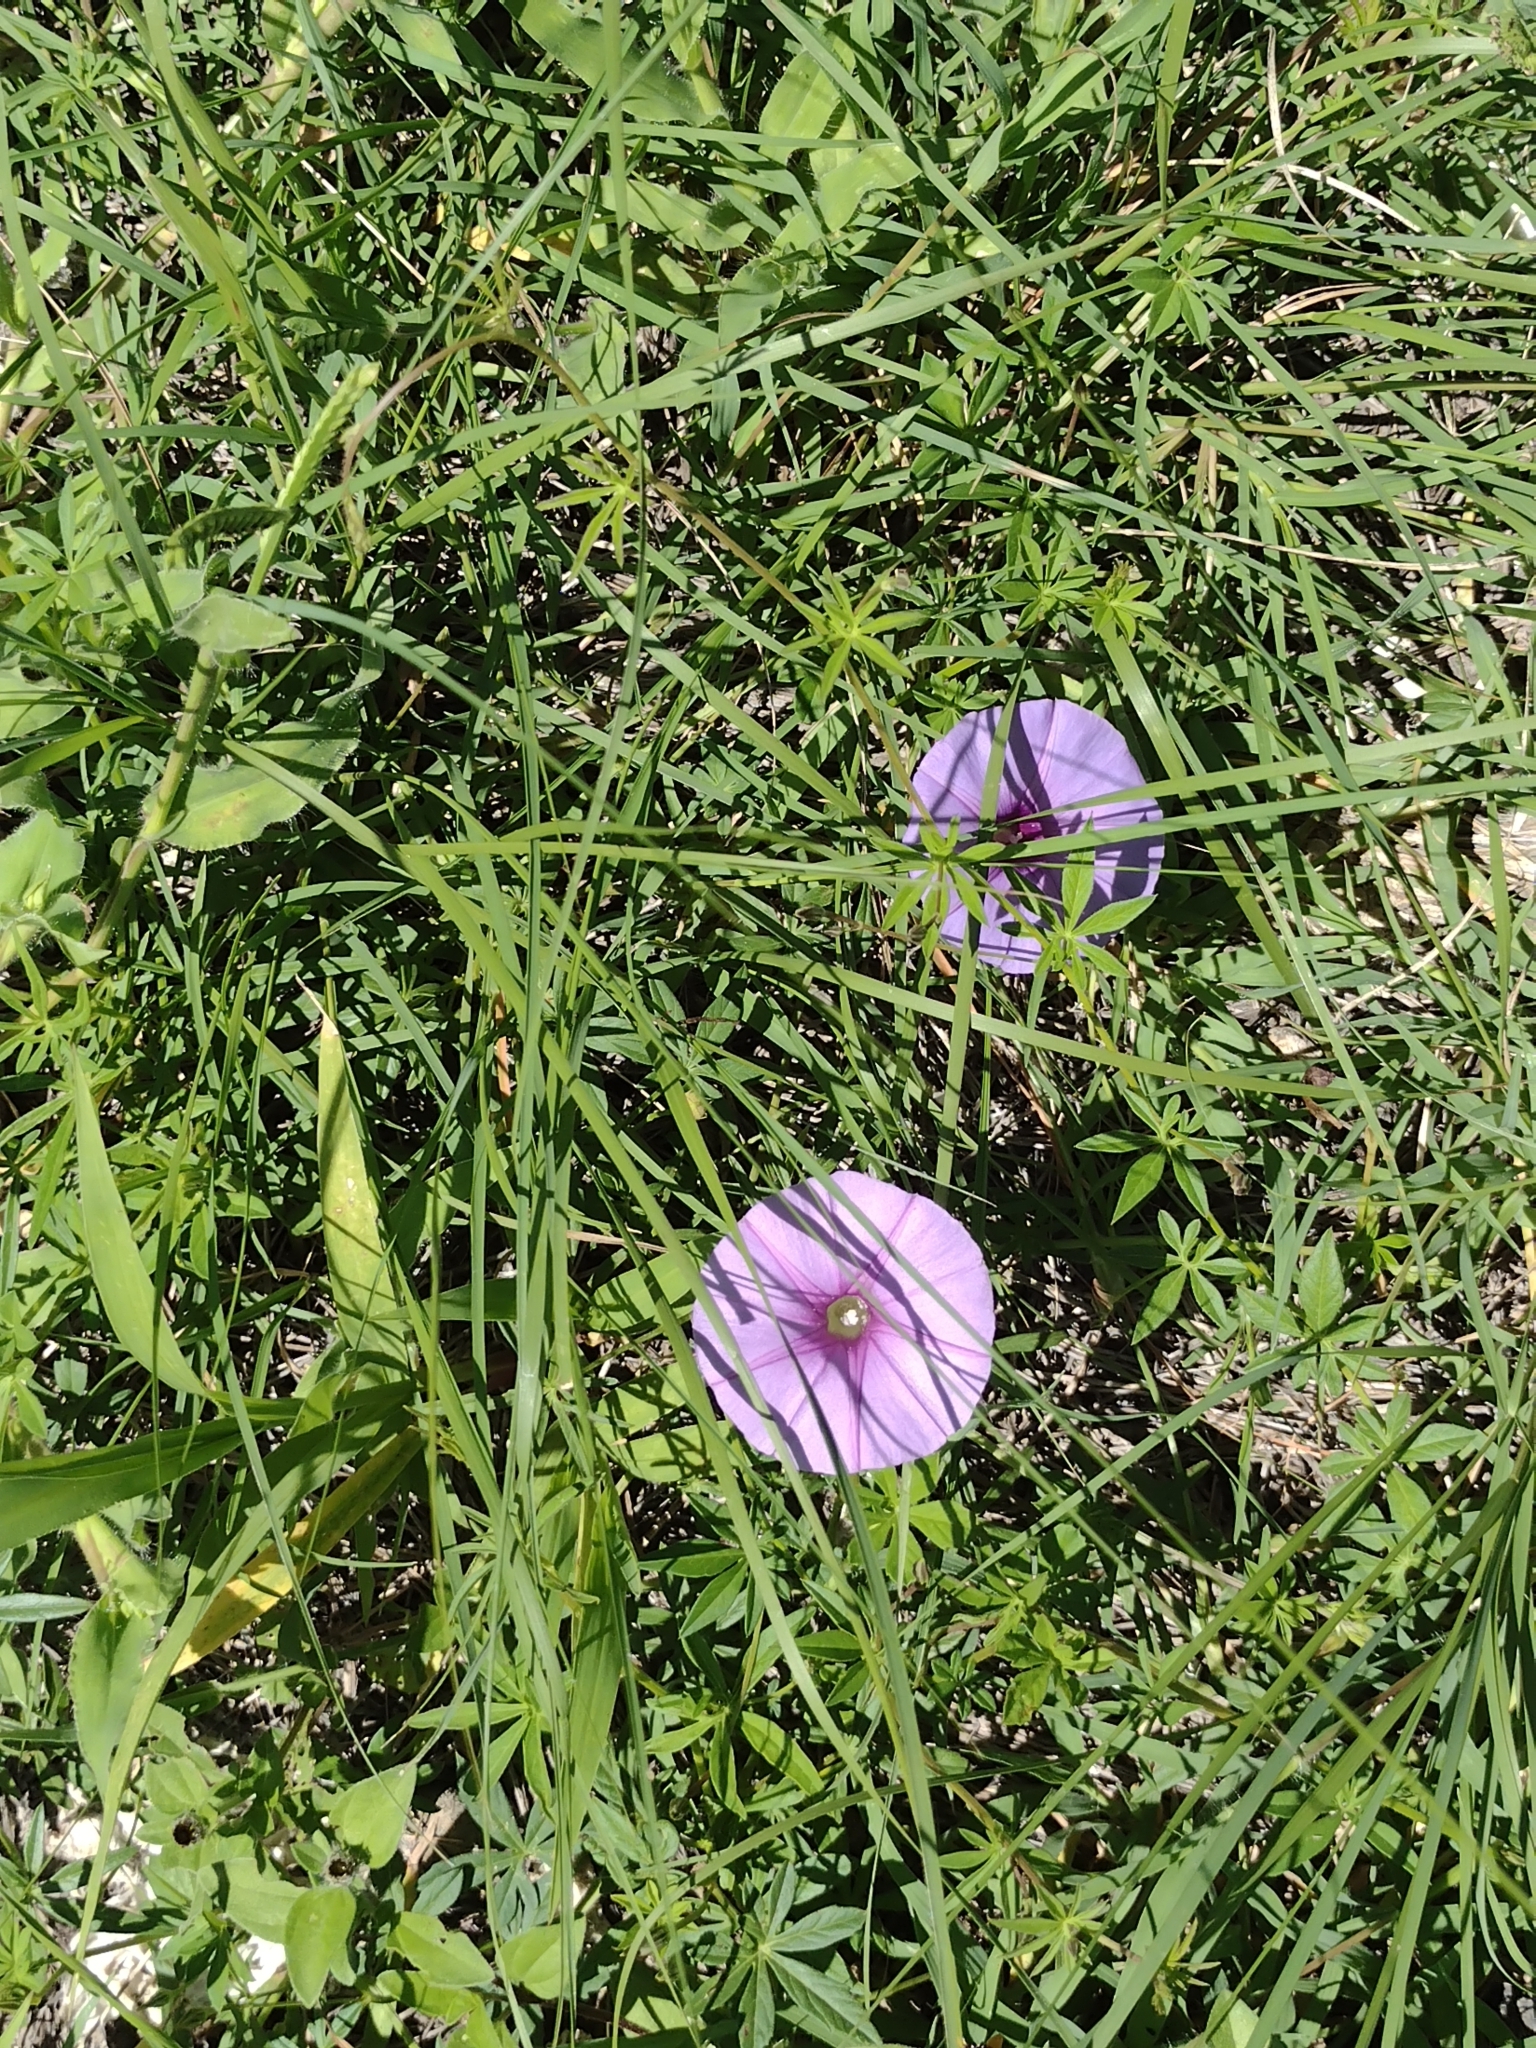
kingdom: Plantae
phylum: Tracheophyta
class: Magnoliopsida
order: Solanales
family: Convolvulaceae
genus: Ipomoea
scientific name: Ipomoea ternifolia
